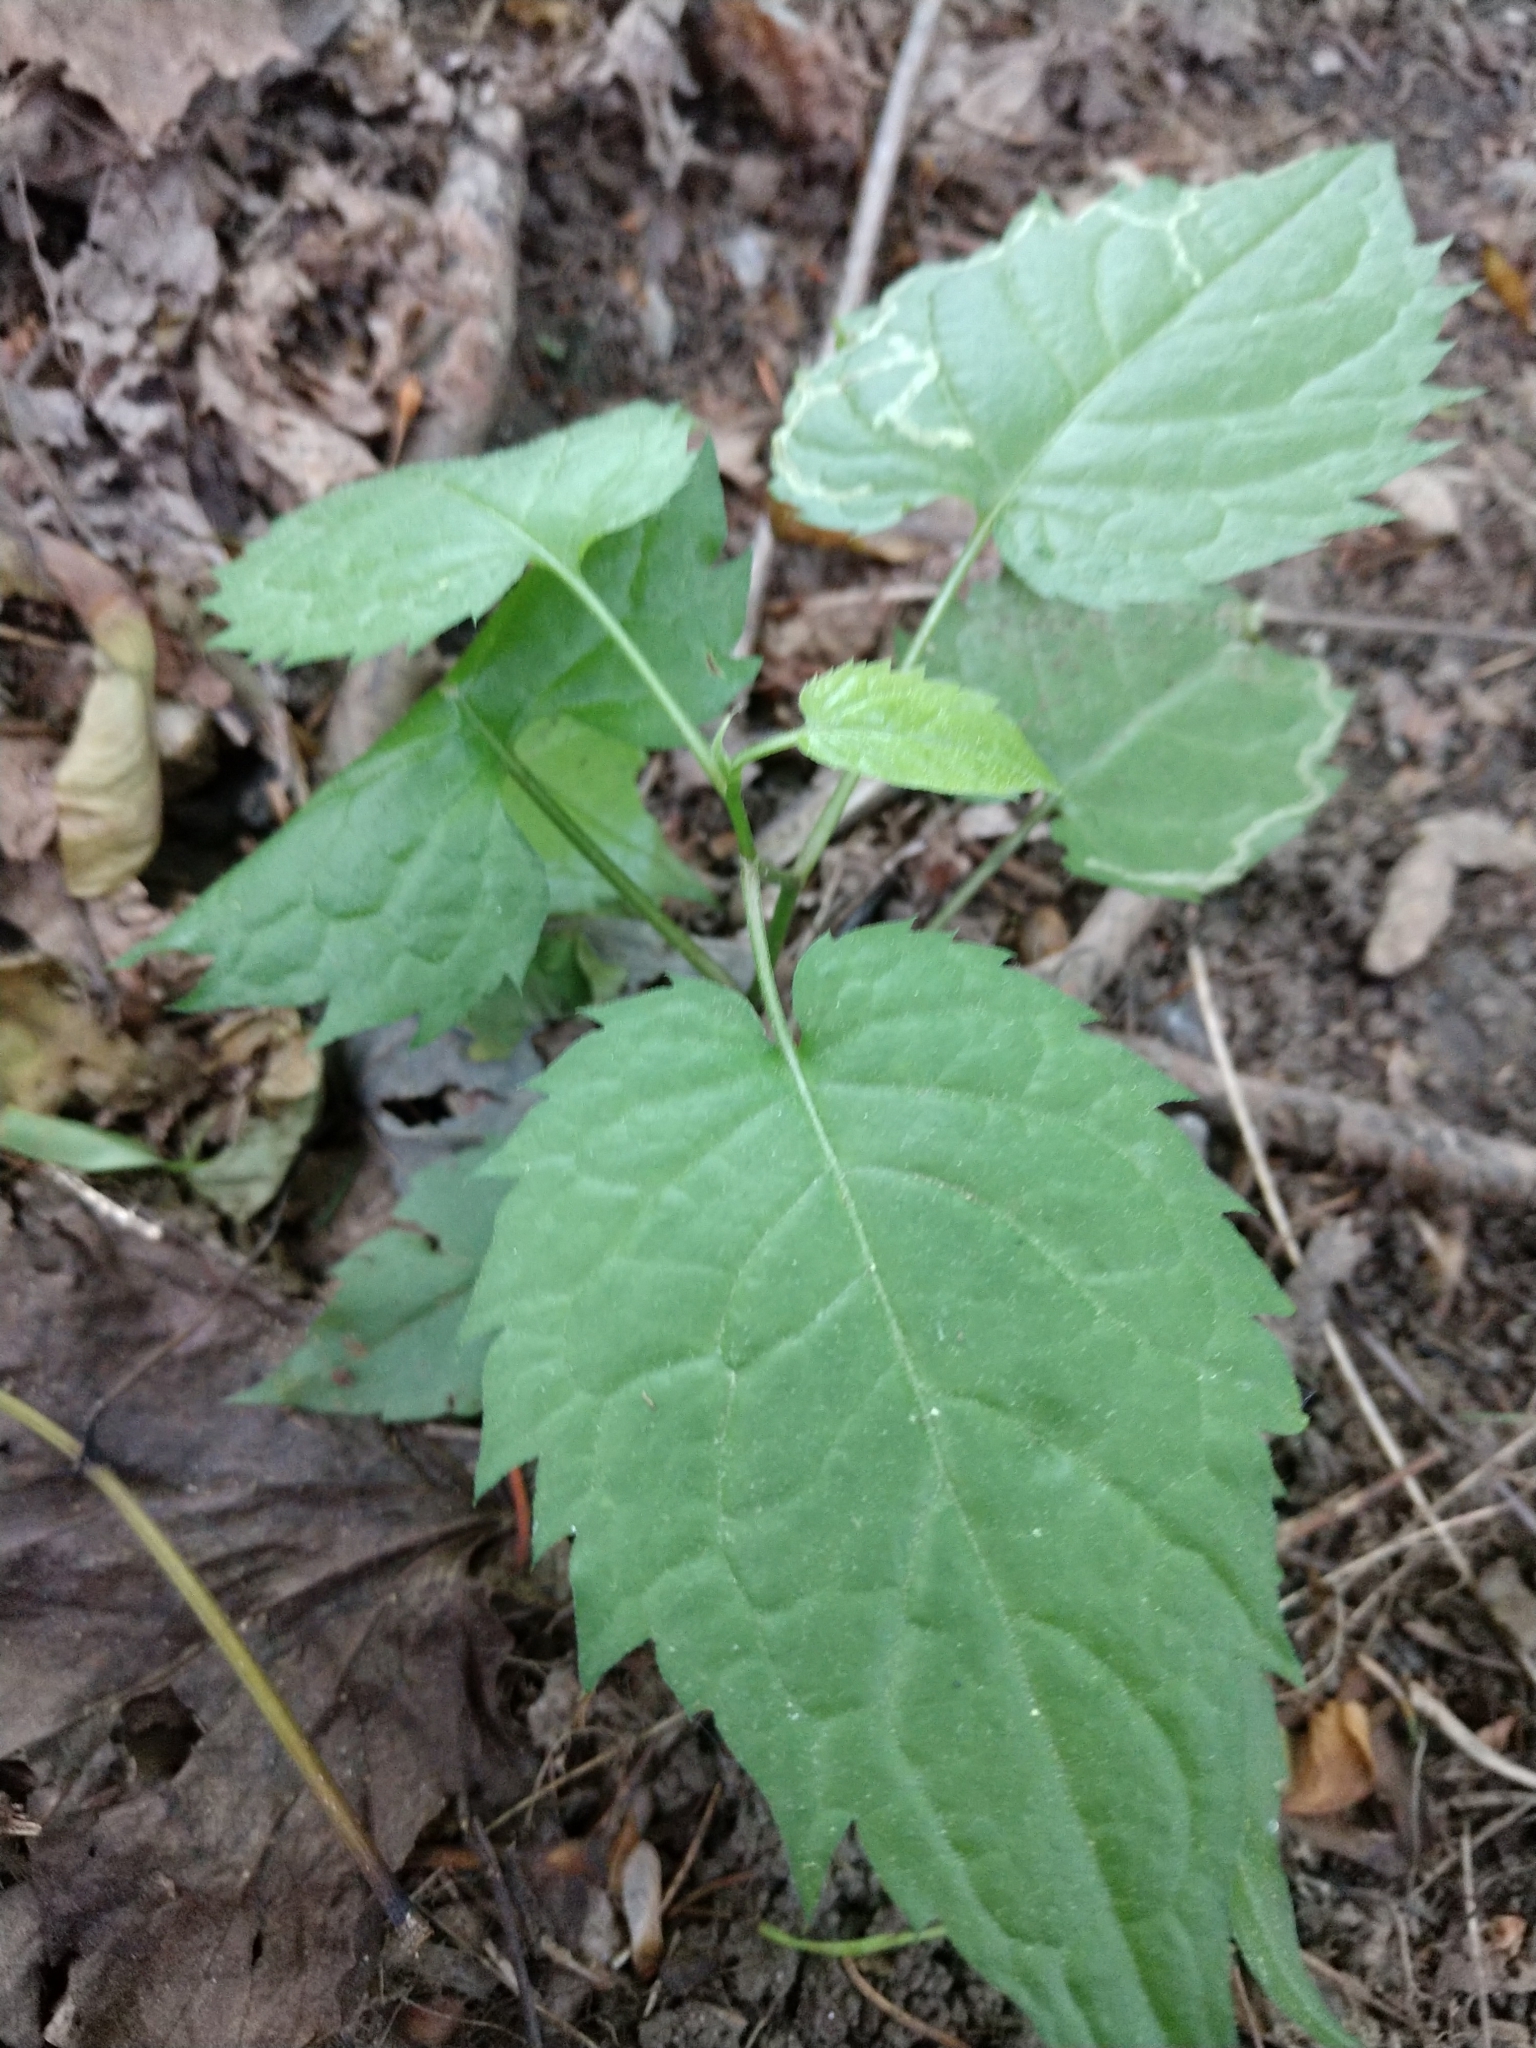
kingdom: Plantae
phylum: Tracheophyta
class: Magnoliopsida
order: Asterales
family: Asteraceae
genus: Ageratina
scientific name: Ageratina altissima
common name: White snakeroot
